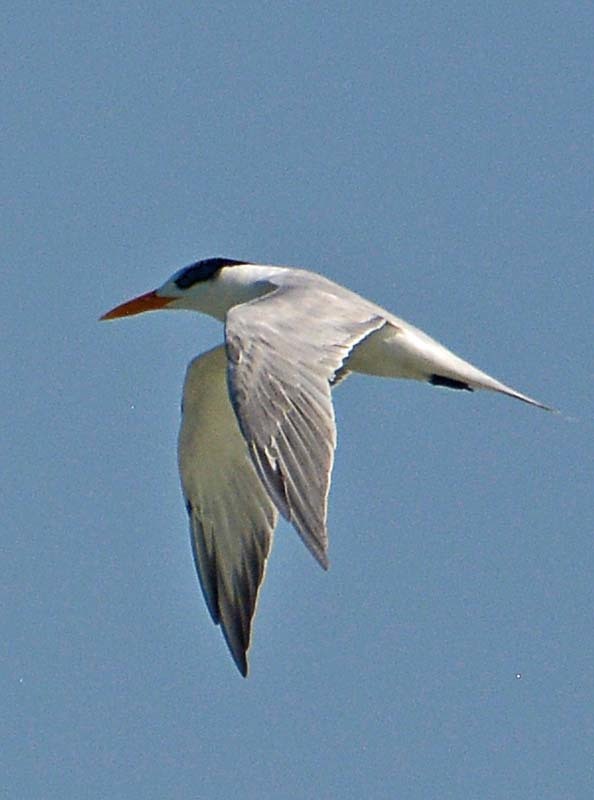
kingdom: Animalia
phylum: Chordata
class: Aves
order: Charadriiformes
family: Laridae
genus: Thalasseus
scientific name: Thalasseus maximus
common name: Royal tern
